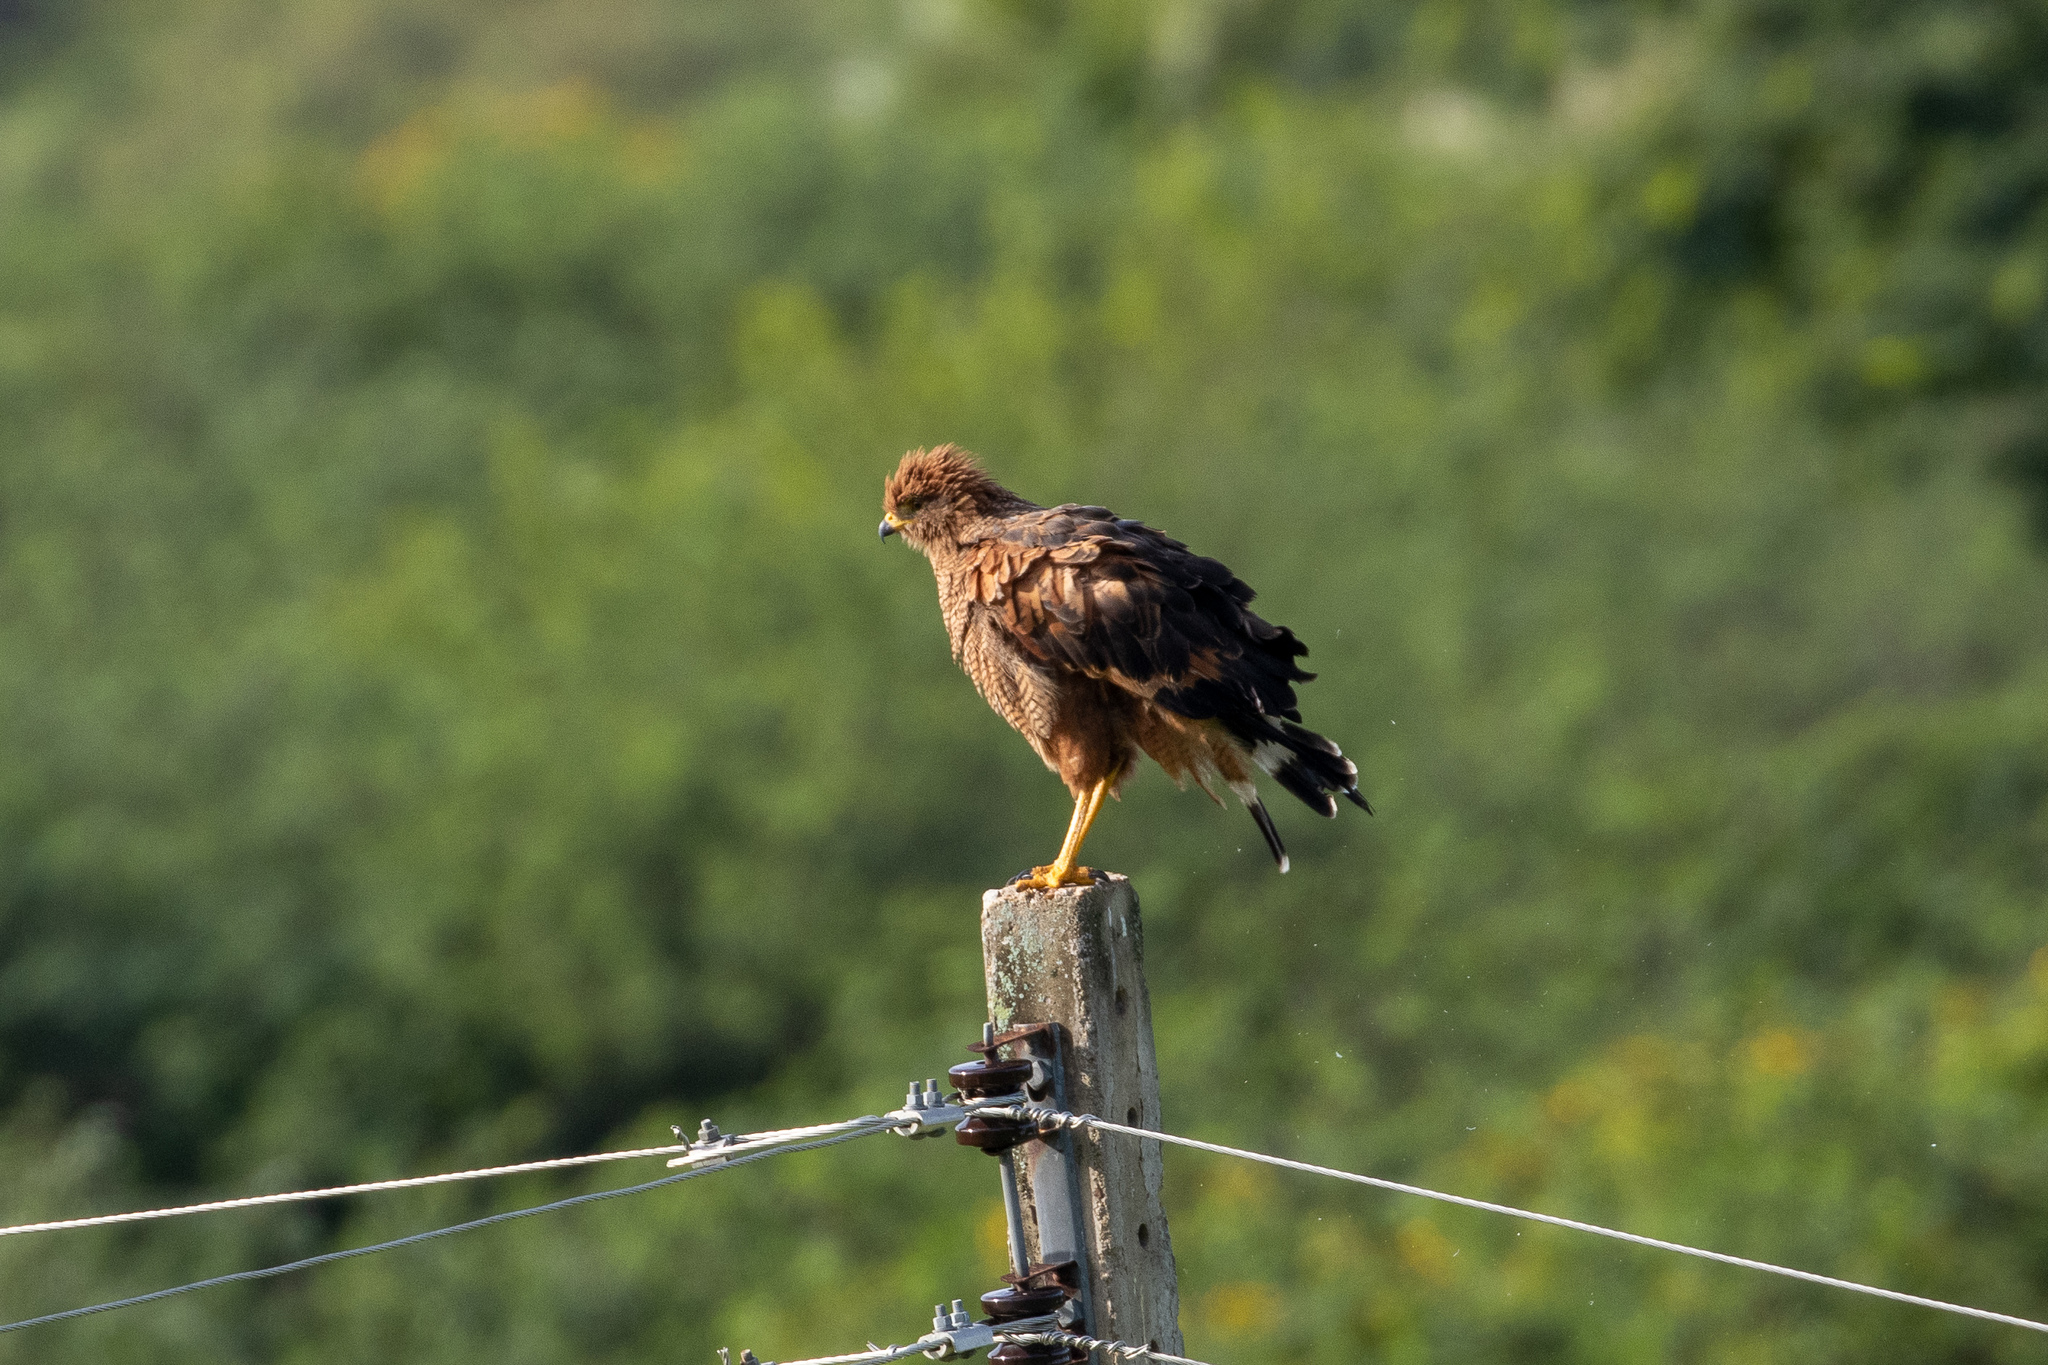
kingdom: Animalia
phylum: Chordata
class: Aves
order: Accipitriformes
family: Accipitridae
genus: Buteogallus
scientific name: Buteogallus meridionalis
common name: Savanna hawk
